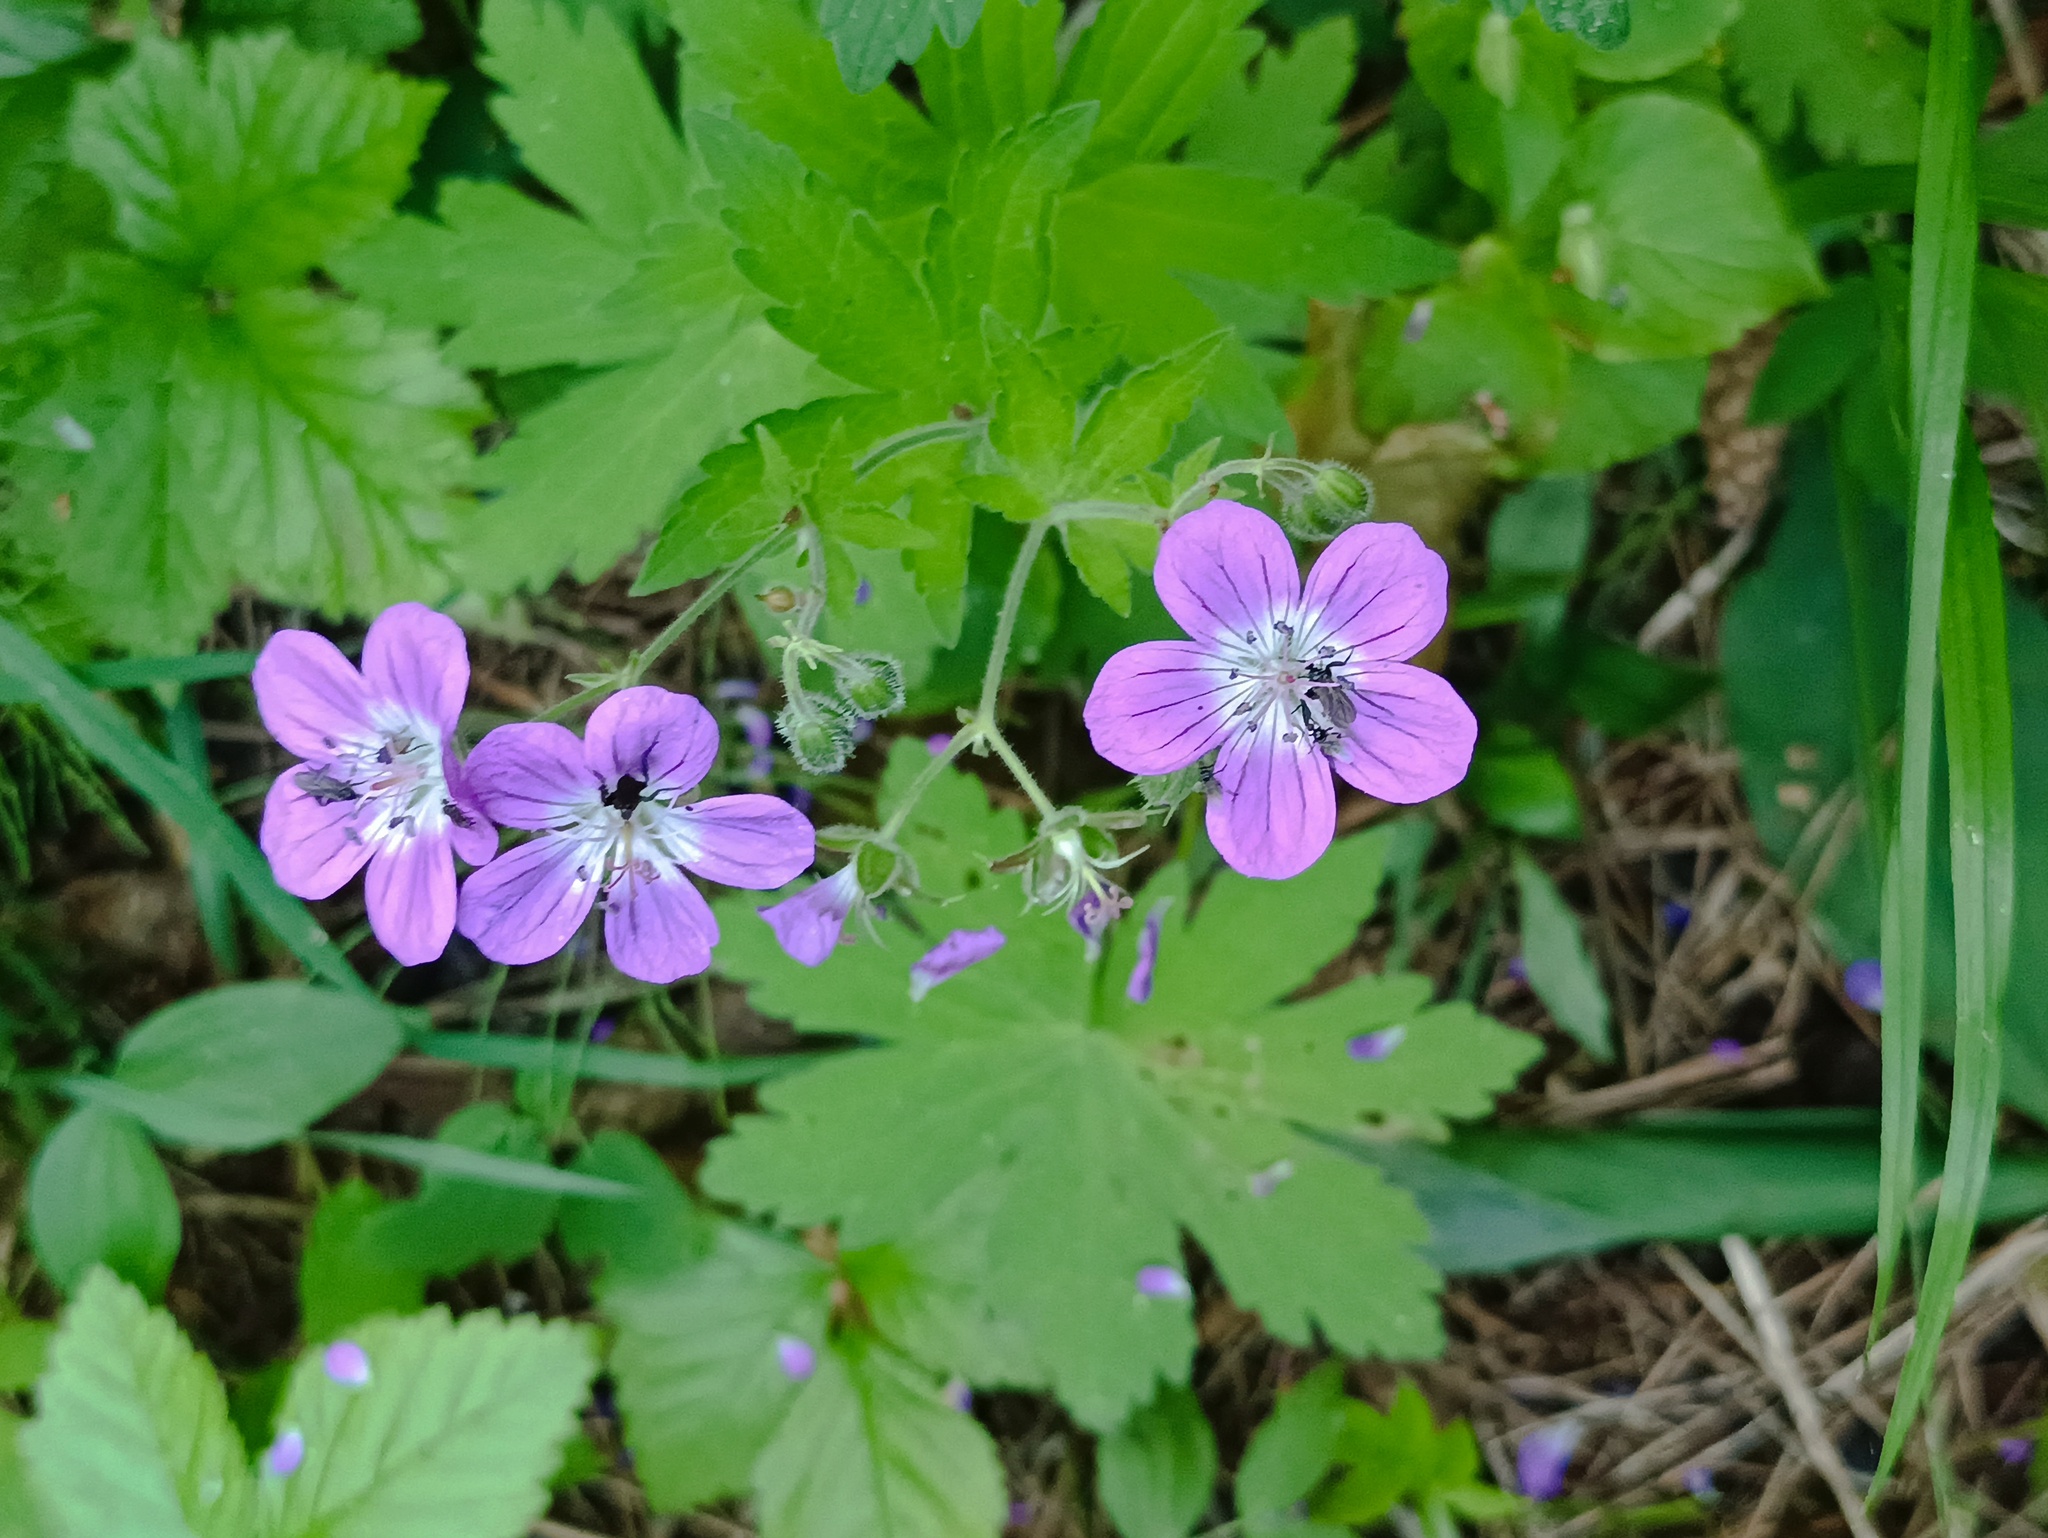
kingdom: Plantae
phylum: Tracheophyta
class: Magnoliopsida
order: Geraniales
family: Geraniaceae
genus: Geranium
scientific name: Geranium sylvaticum
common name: Wood crane's-bill
